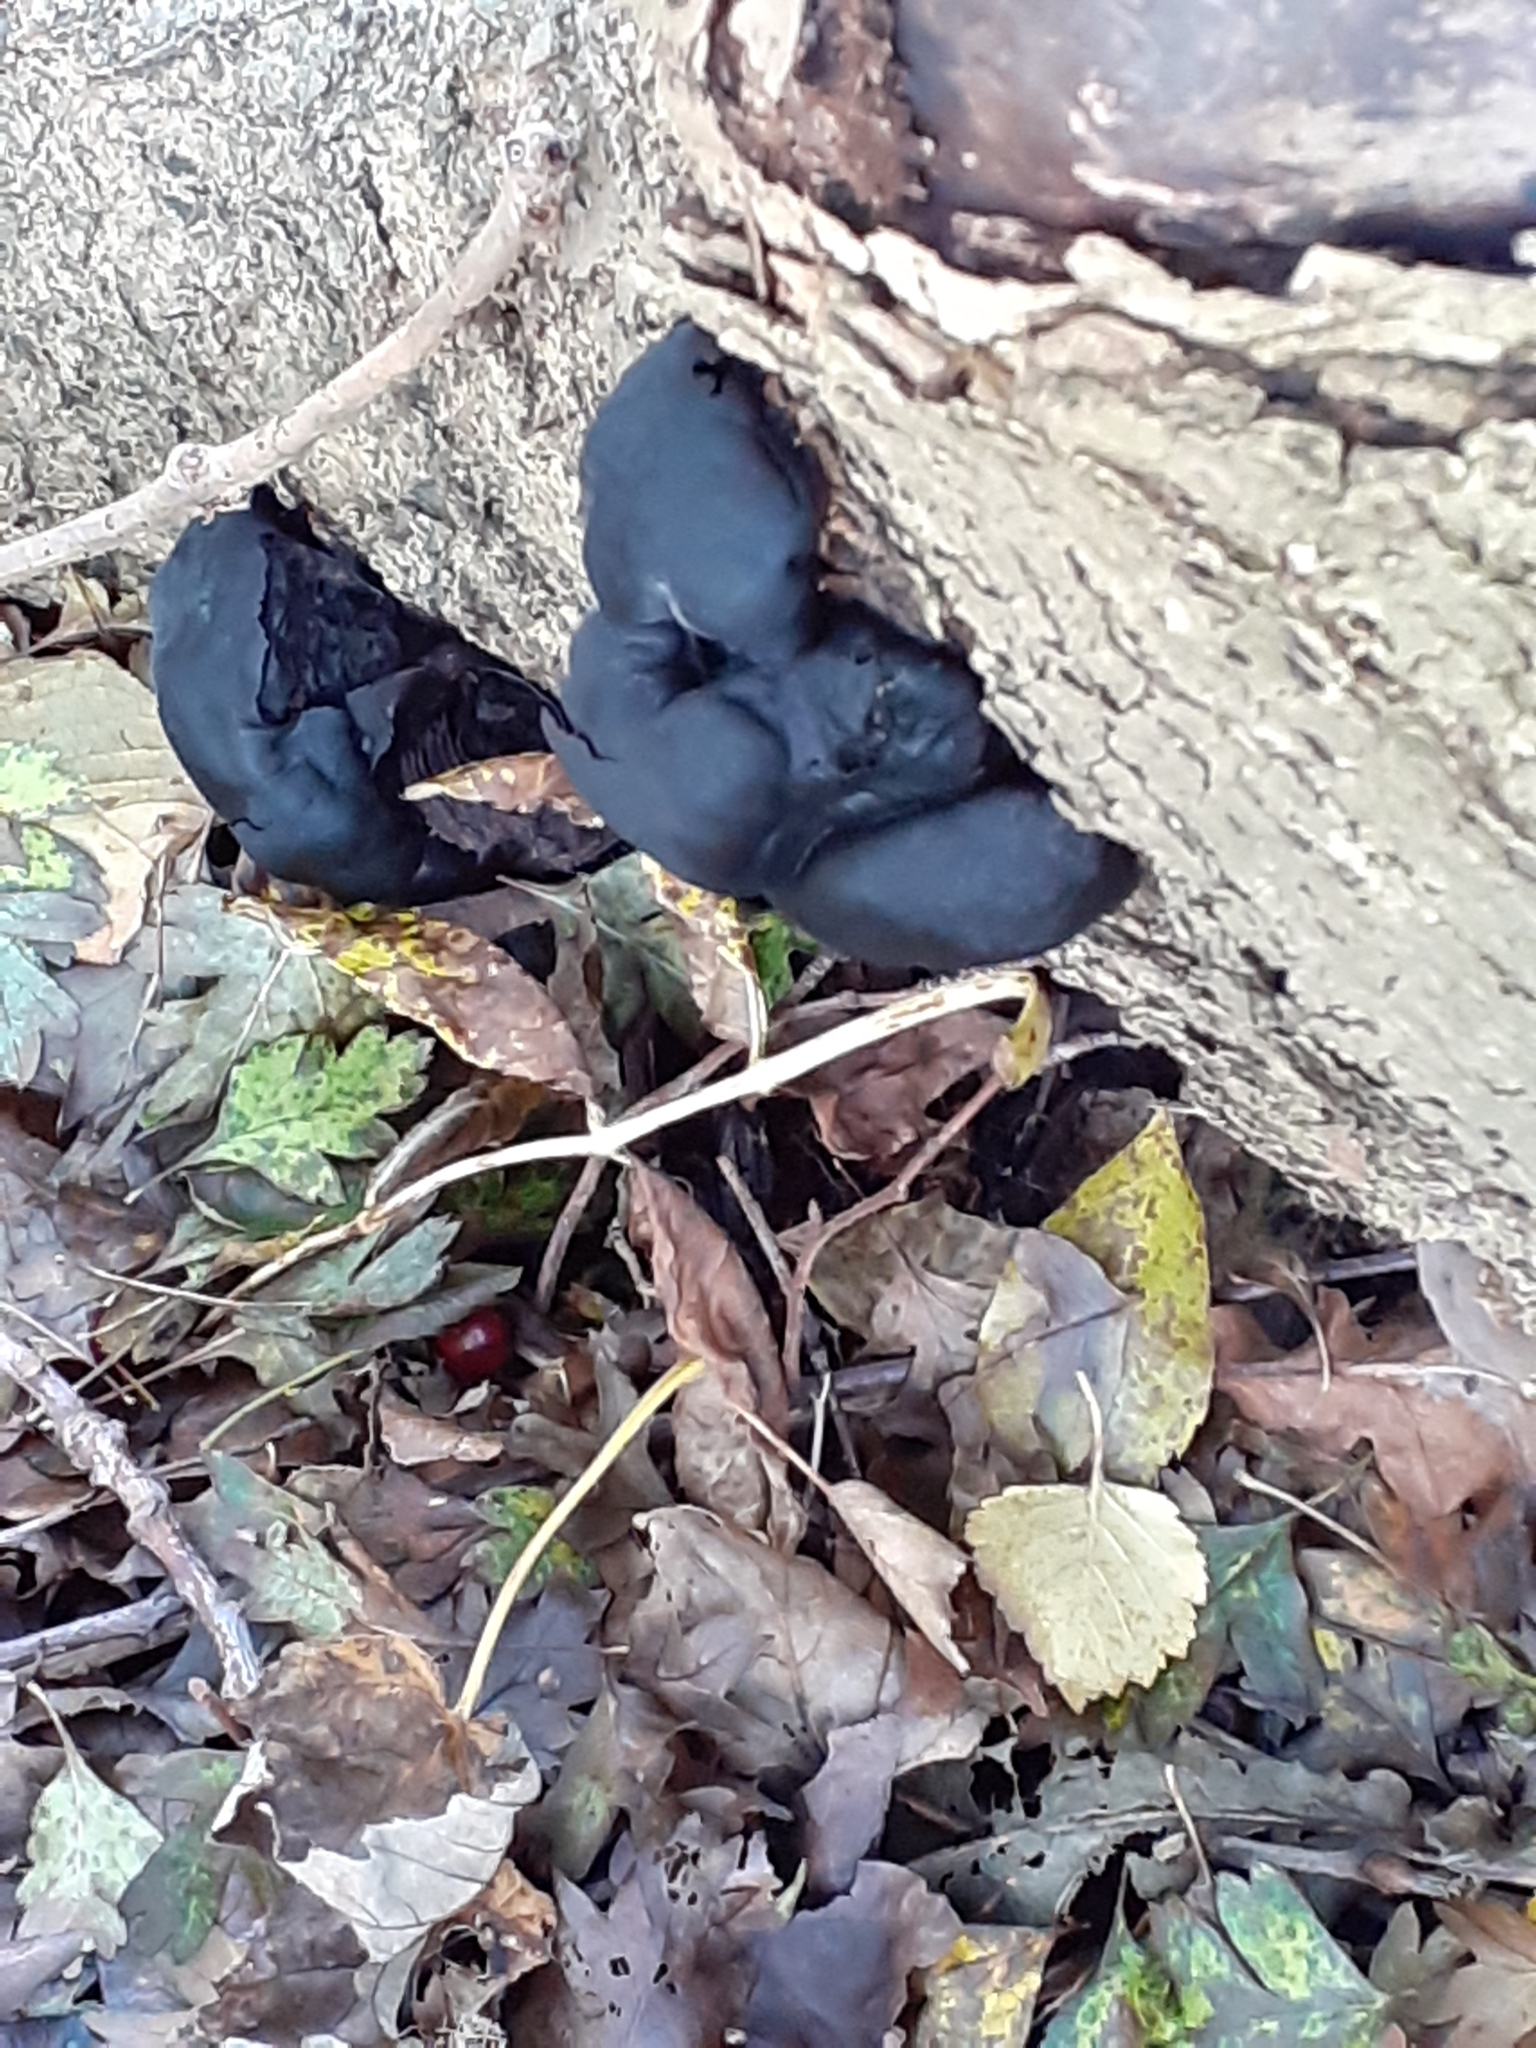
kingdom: Fungi
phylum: Ascomycota
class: Sordariomycetes
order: Xylariales
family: Hypoxylaceae
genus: Daldinia
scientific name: Daldinia concentrica
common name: Cramp balls
